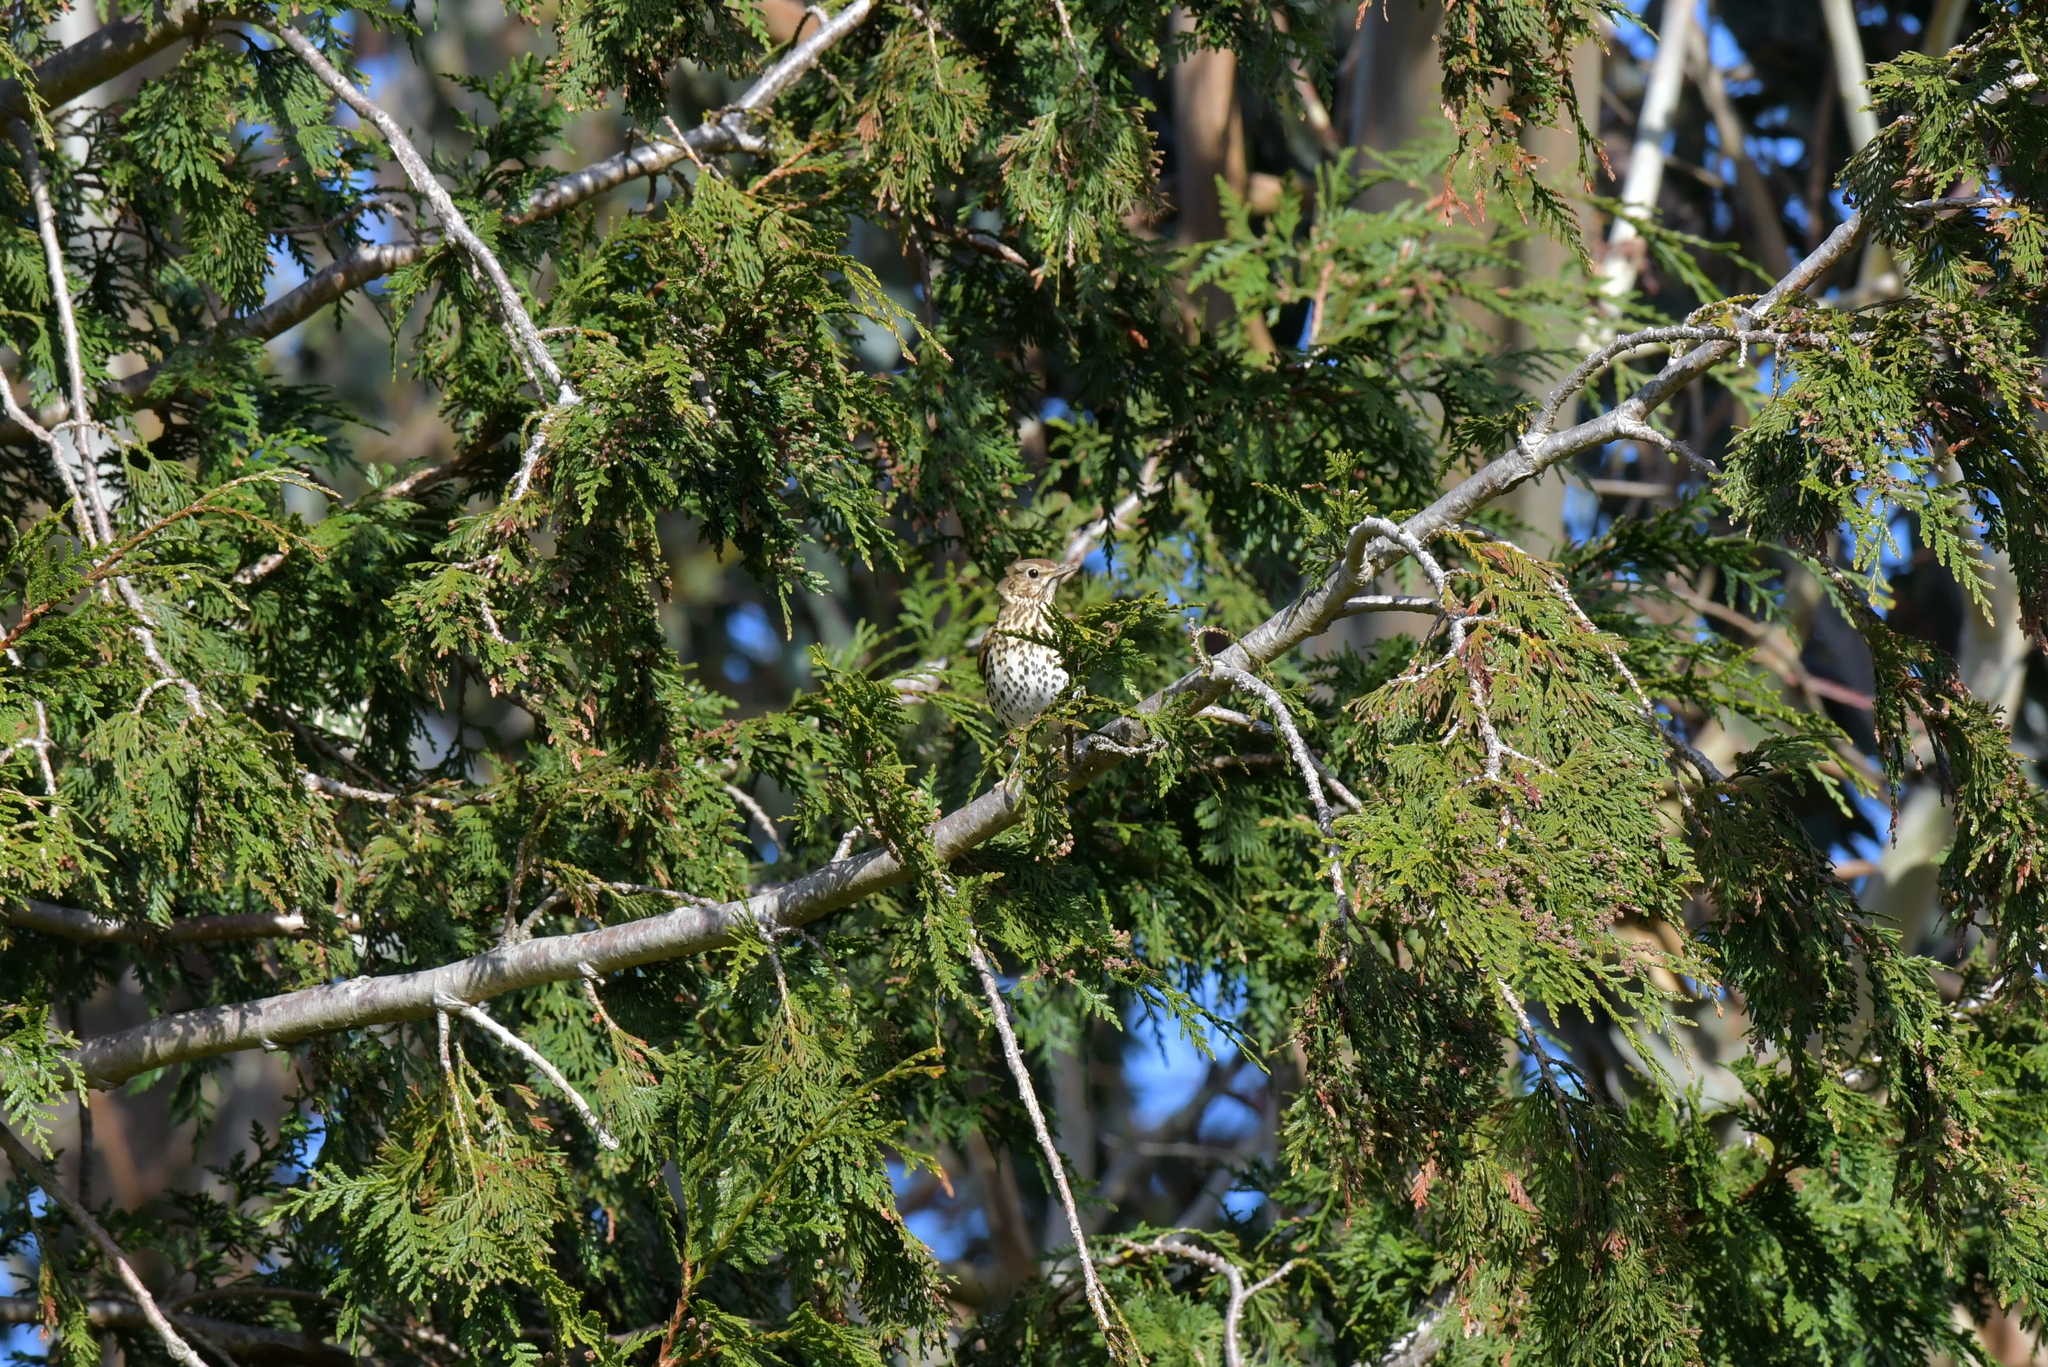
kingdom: Animalia
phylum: Chordata
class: Aves
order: Passeriformes
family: Turdidae
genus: Turdus
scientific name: Turdus philomelos
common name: Song thrush
